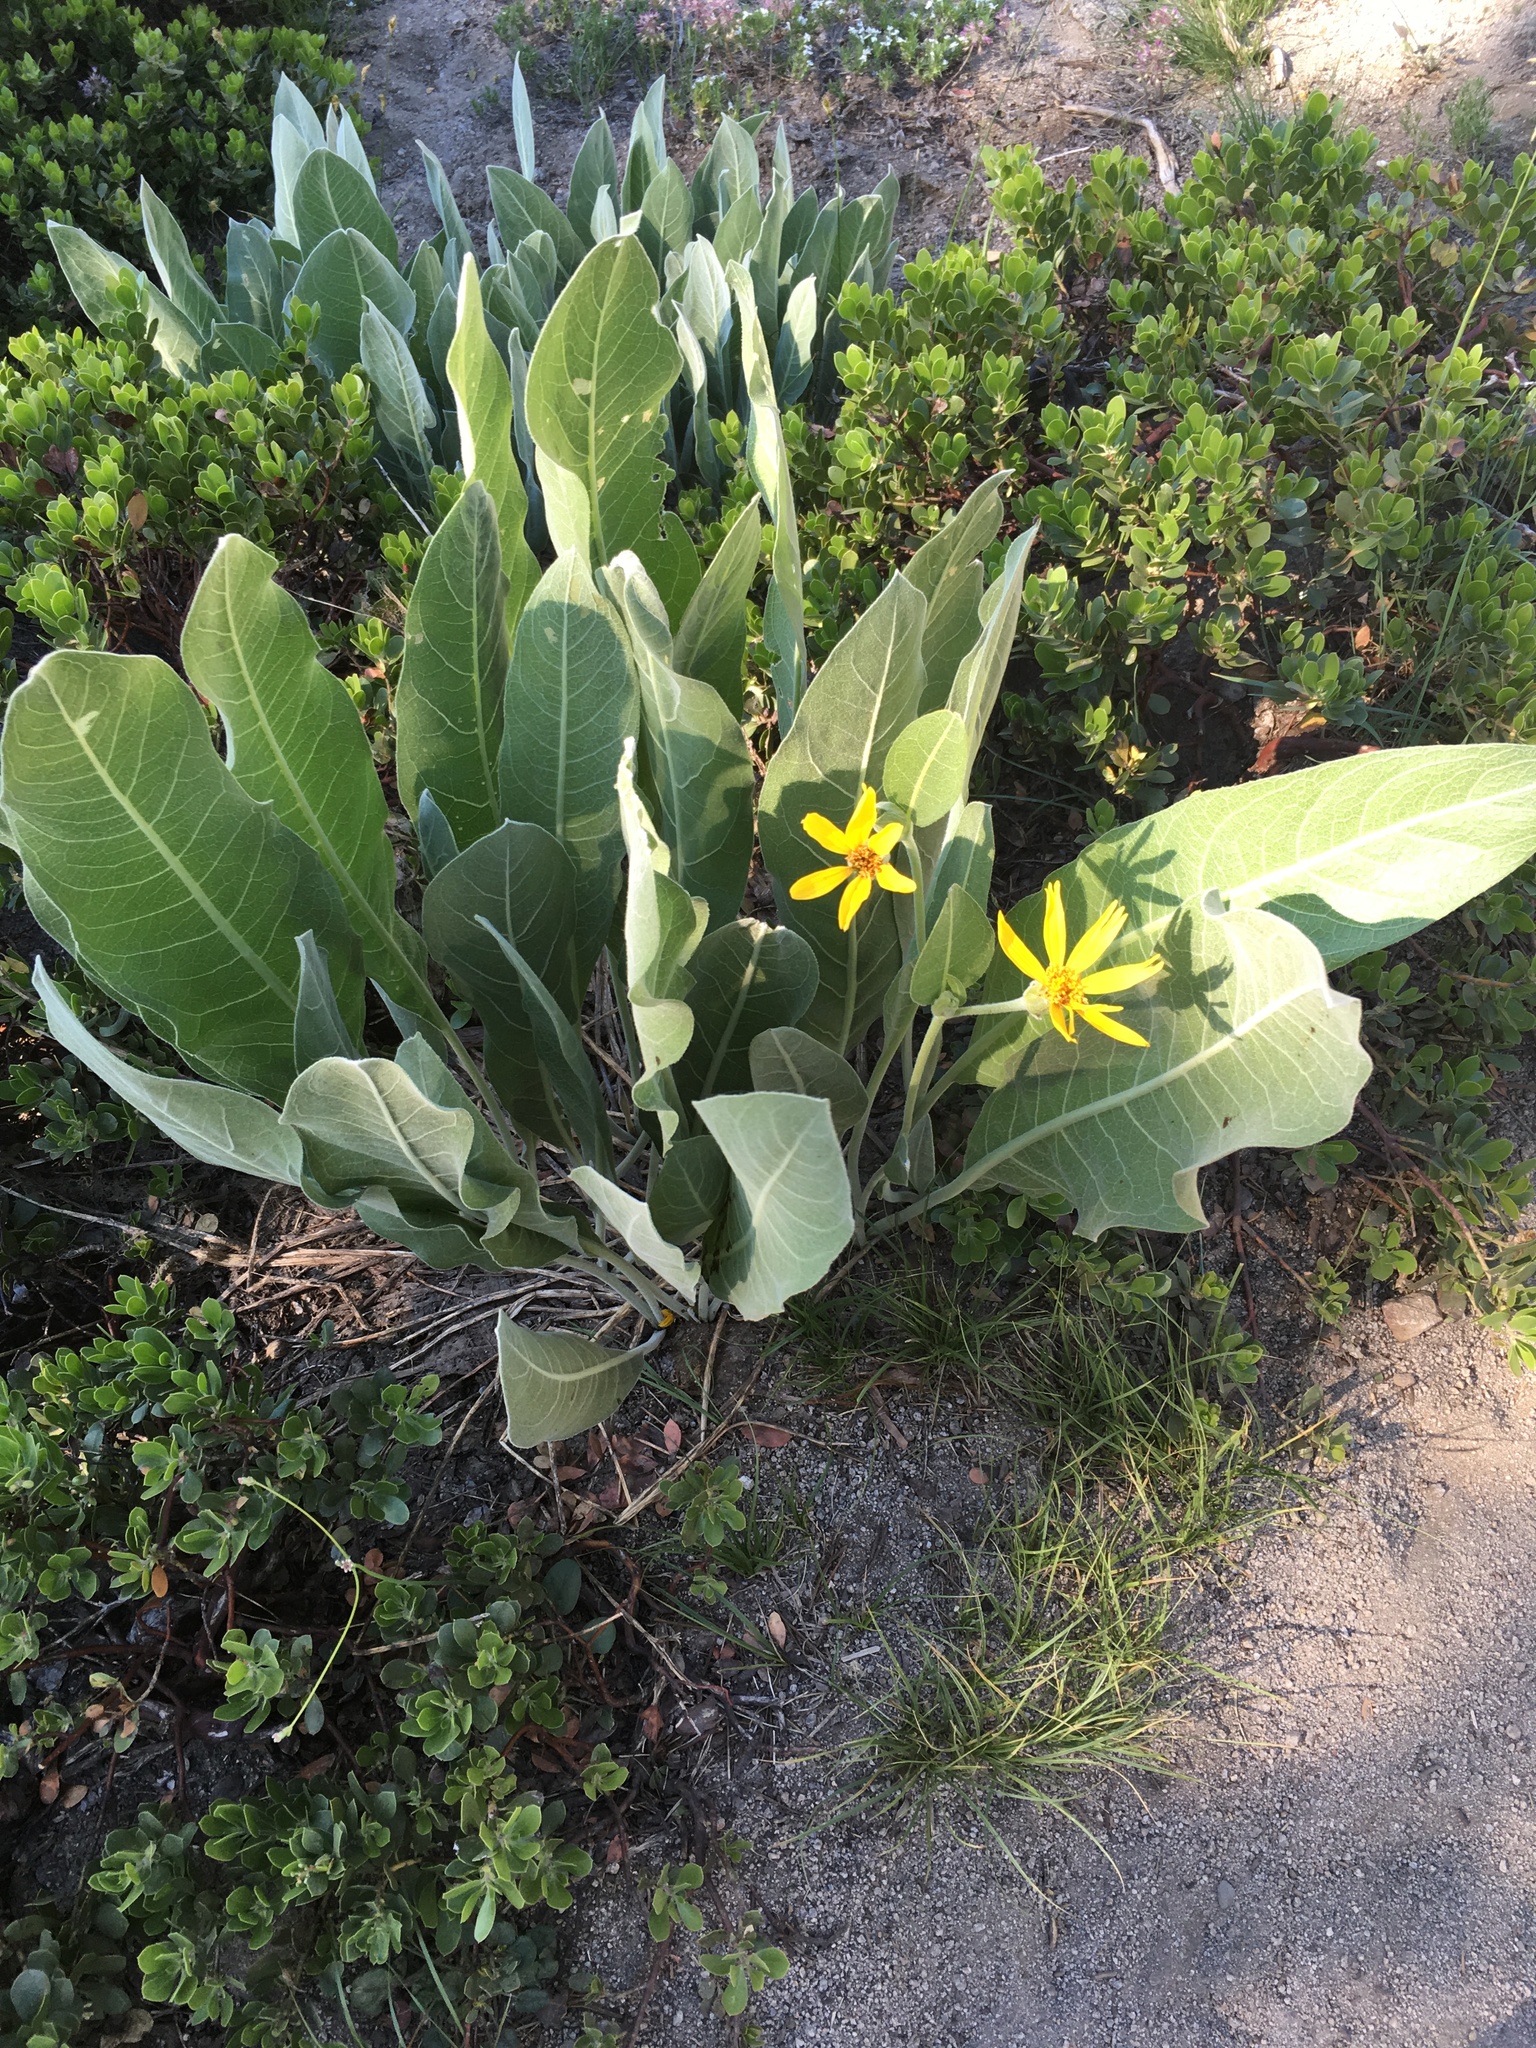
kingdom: Plantae
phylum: Tracheophyta
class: Magnoliopsida
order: Asterales
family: Asteraceae
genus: Wyethia
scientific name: Wyethia mollis
